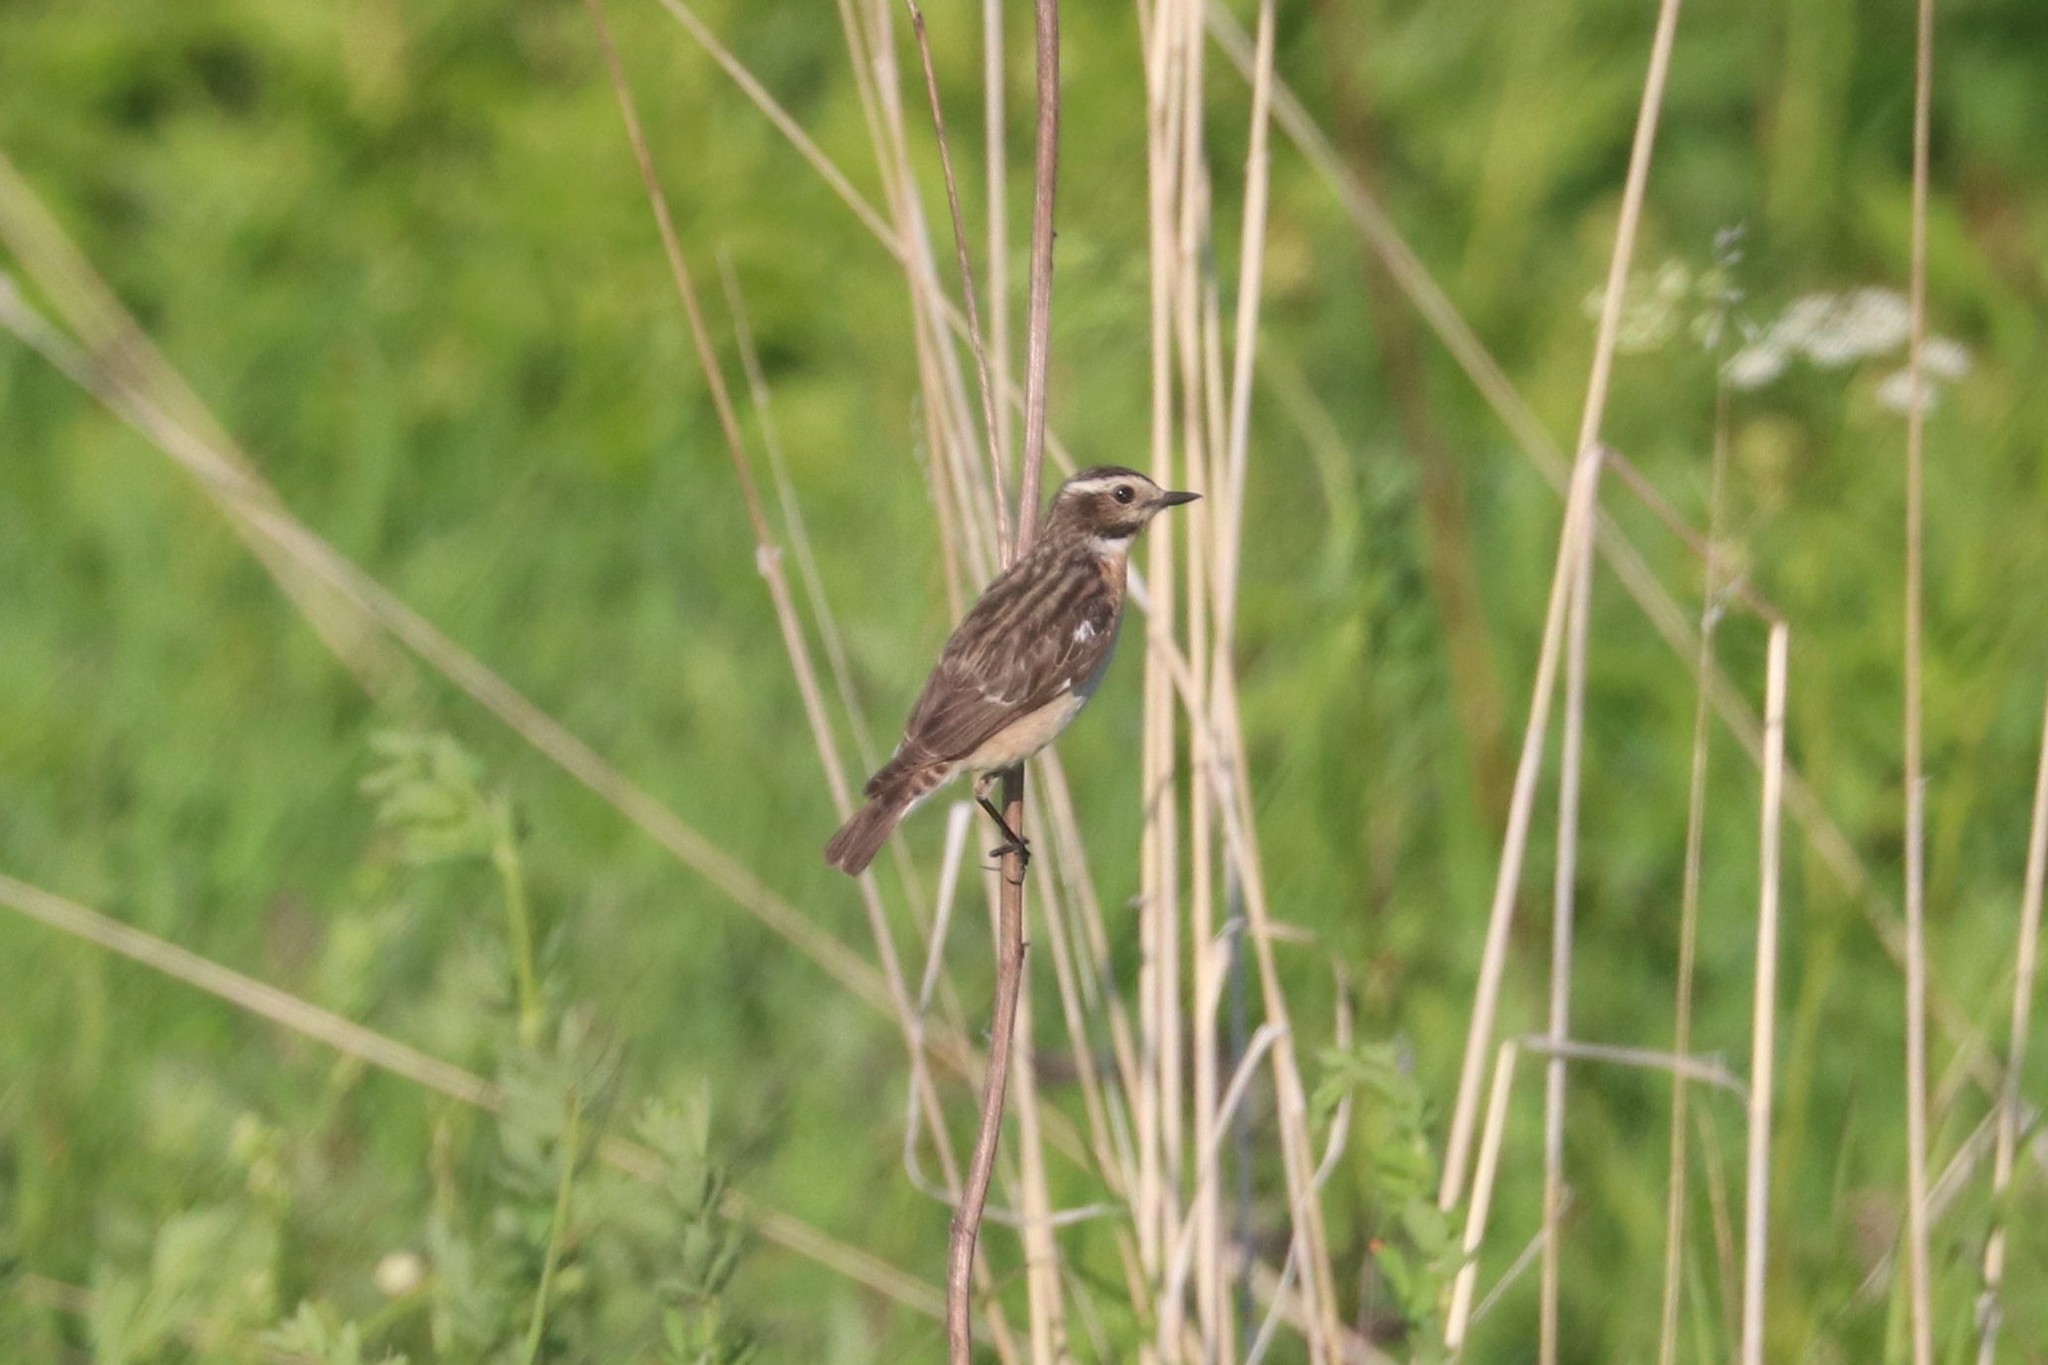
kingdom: Animalia
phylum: Chordata
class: Aves
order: Passeriformes
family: Muscicapidae
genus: Saxicola
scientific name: Saxicola rubetra
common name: Whinchat
